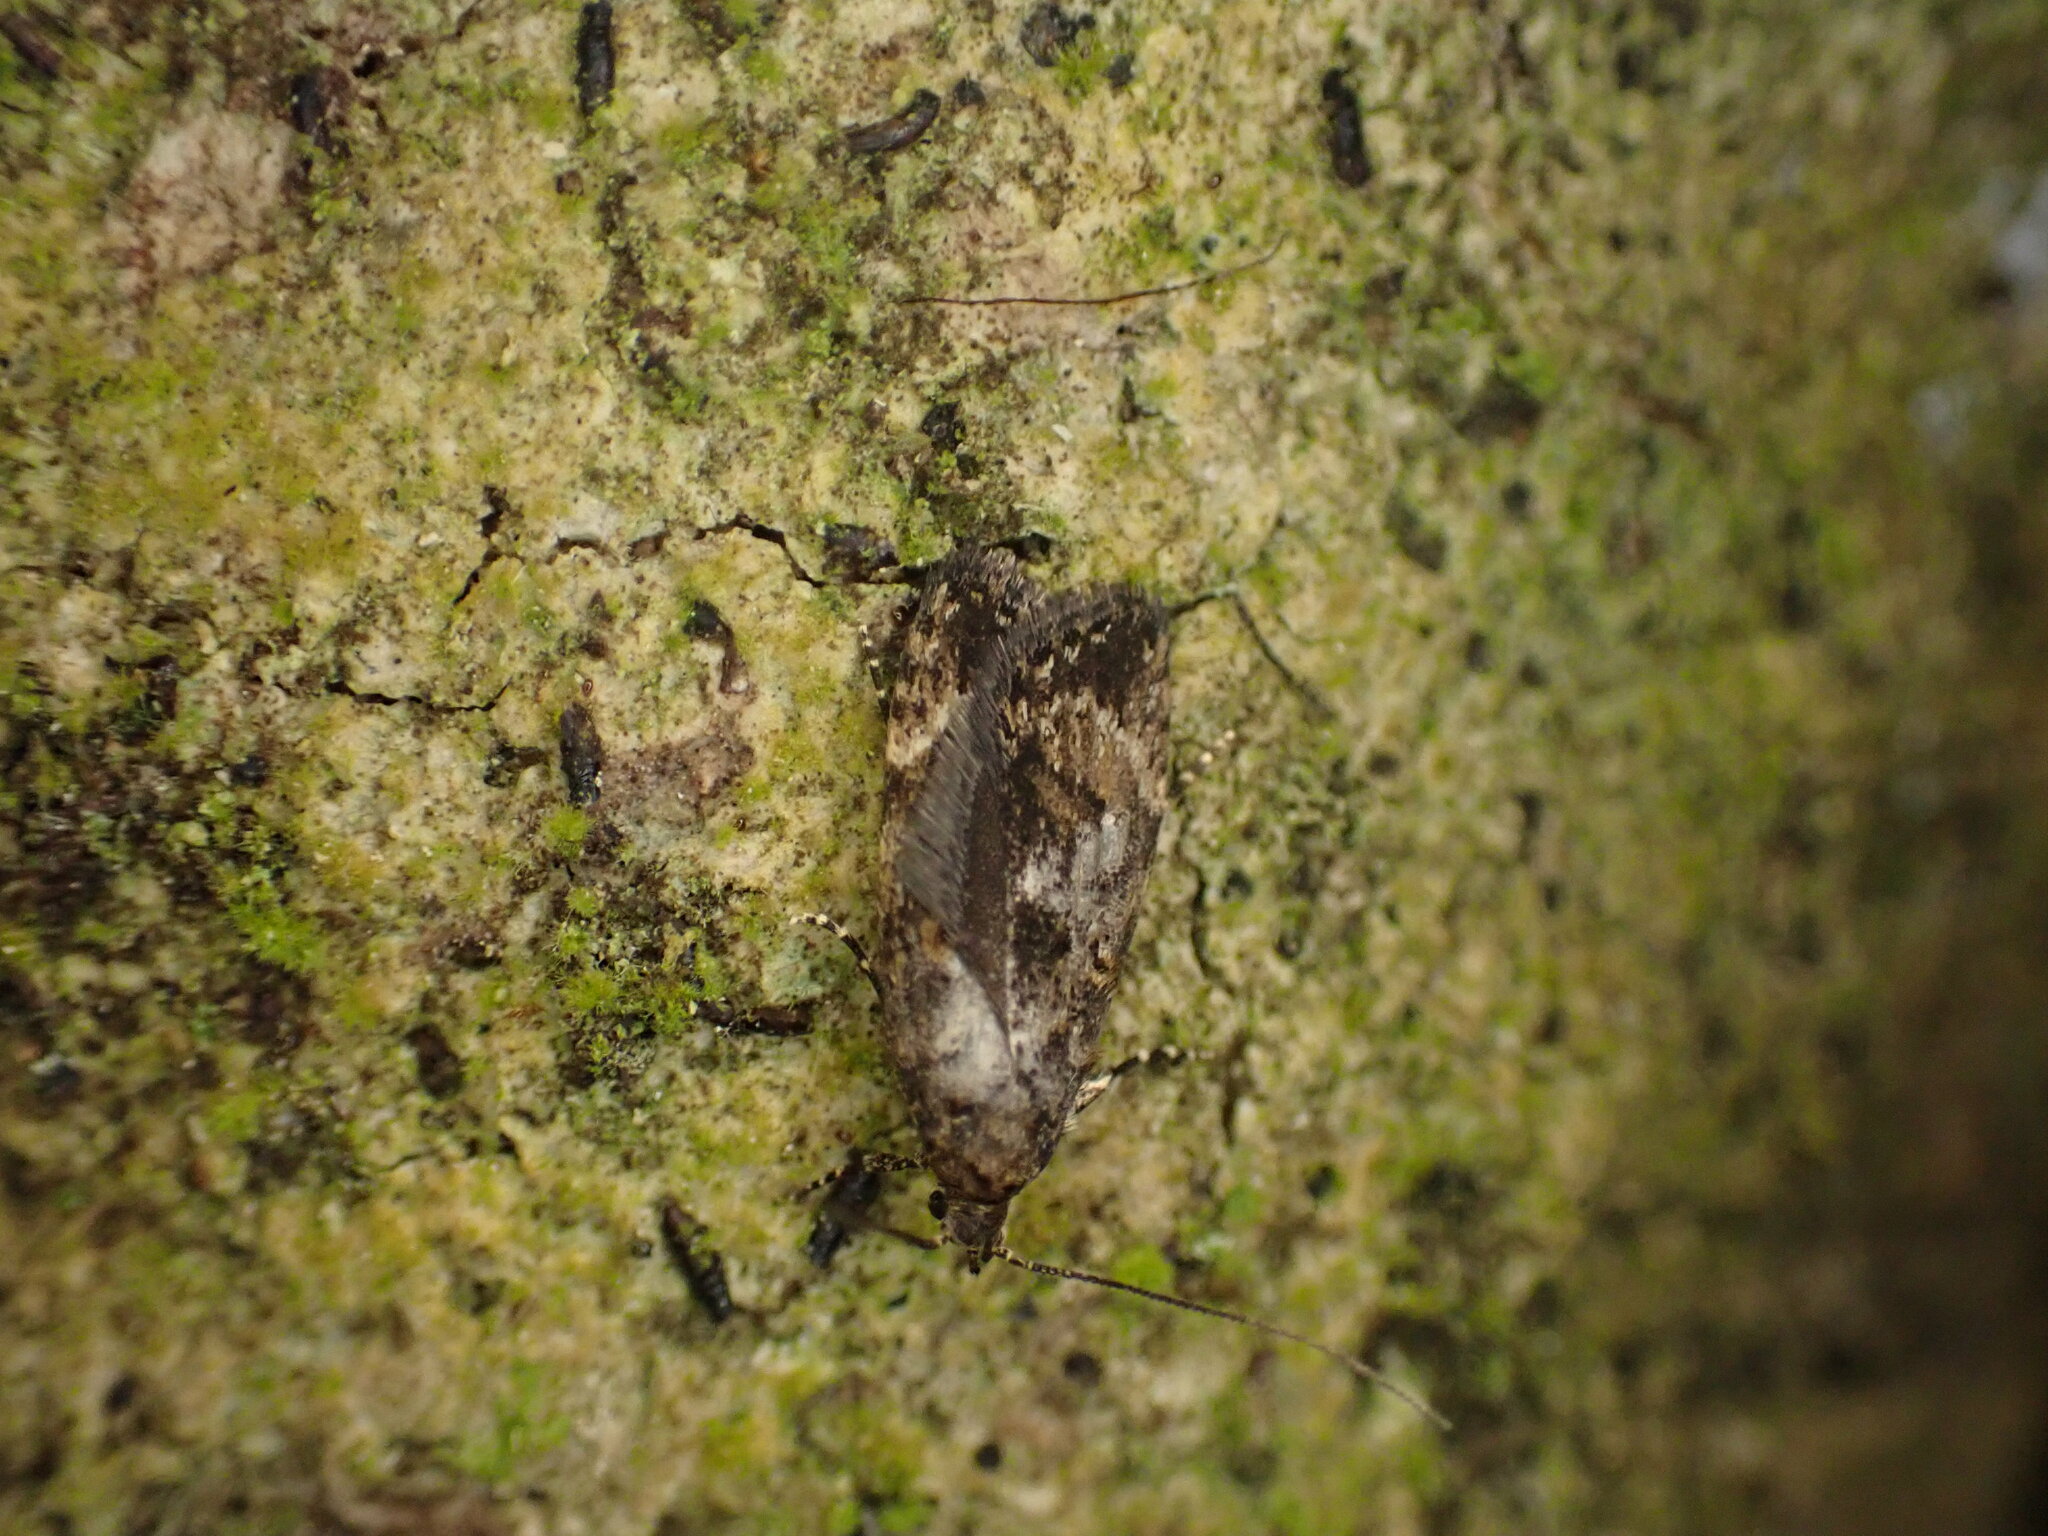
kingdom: Animalia
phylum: Arthropoda
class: Insecta
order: Lepidoptera
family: Oecophoridae
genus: Izatha
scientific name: Izatha phaeoptila
